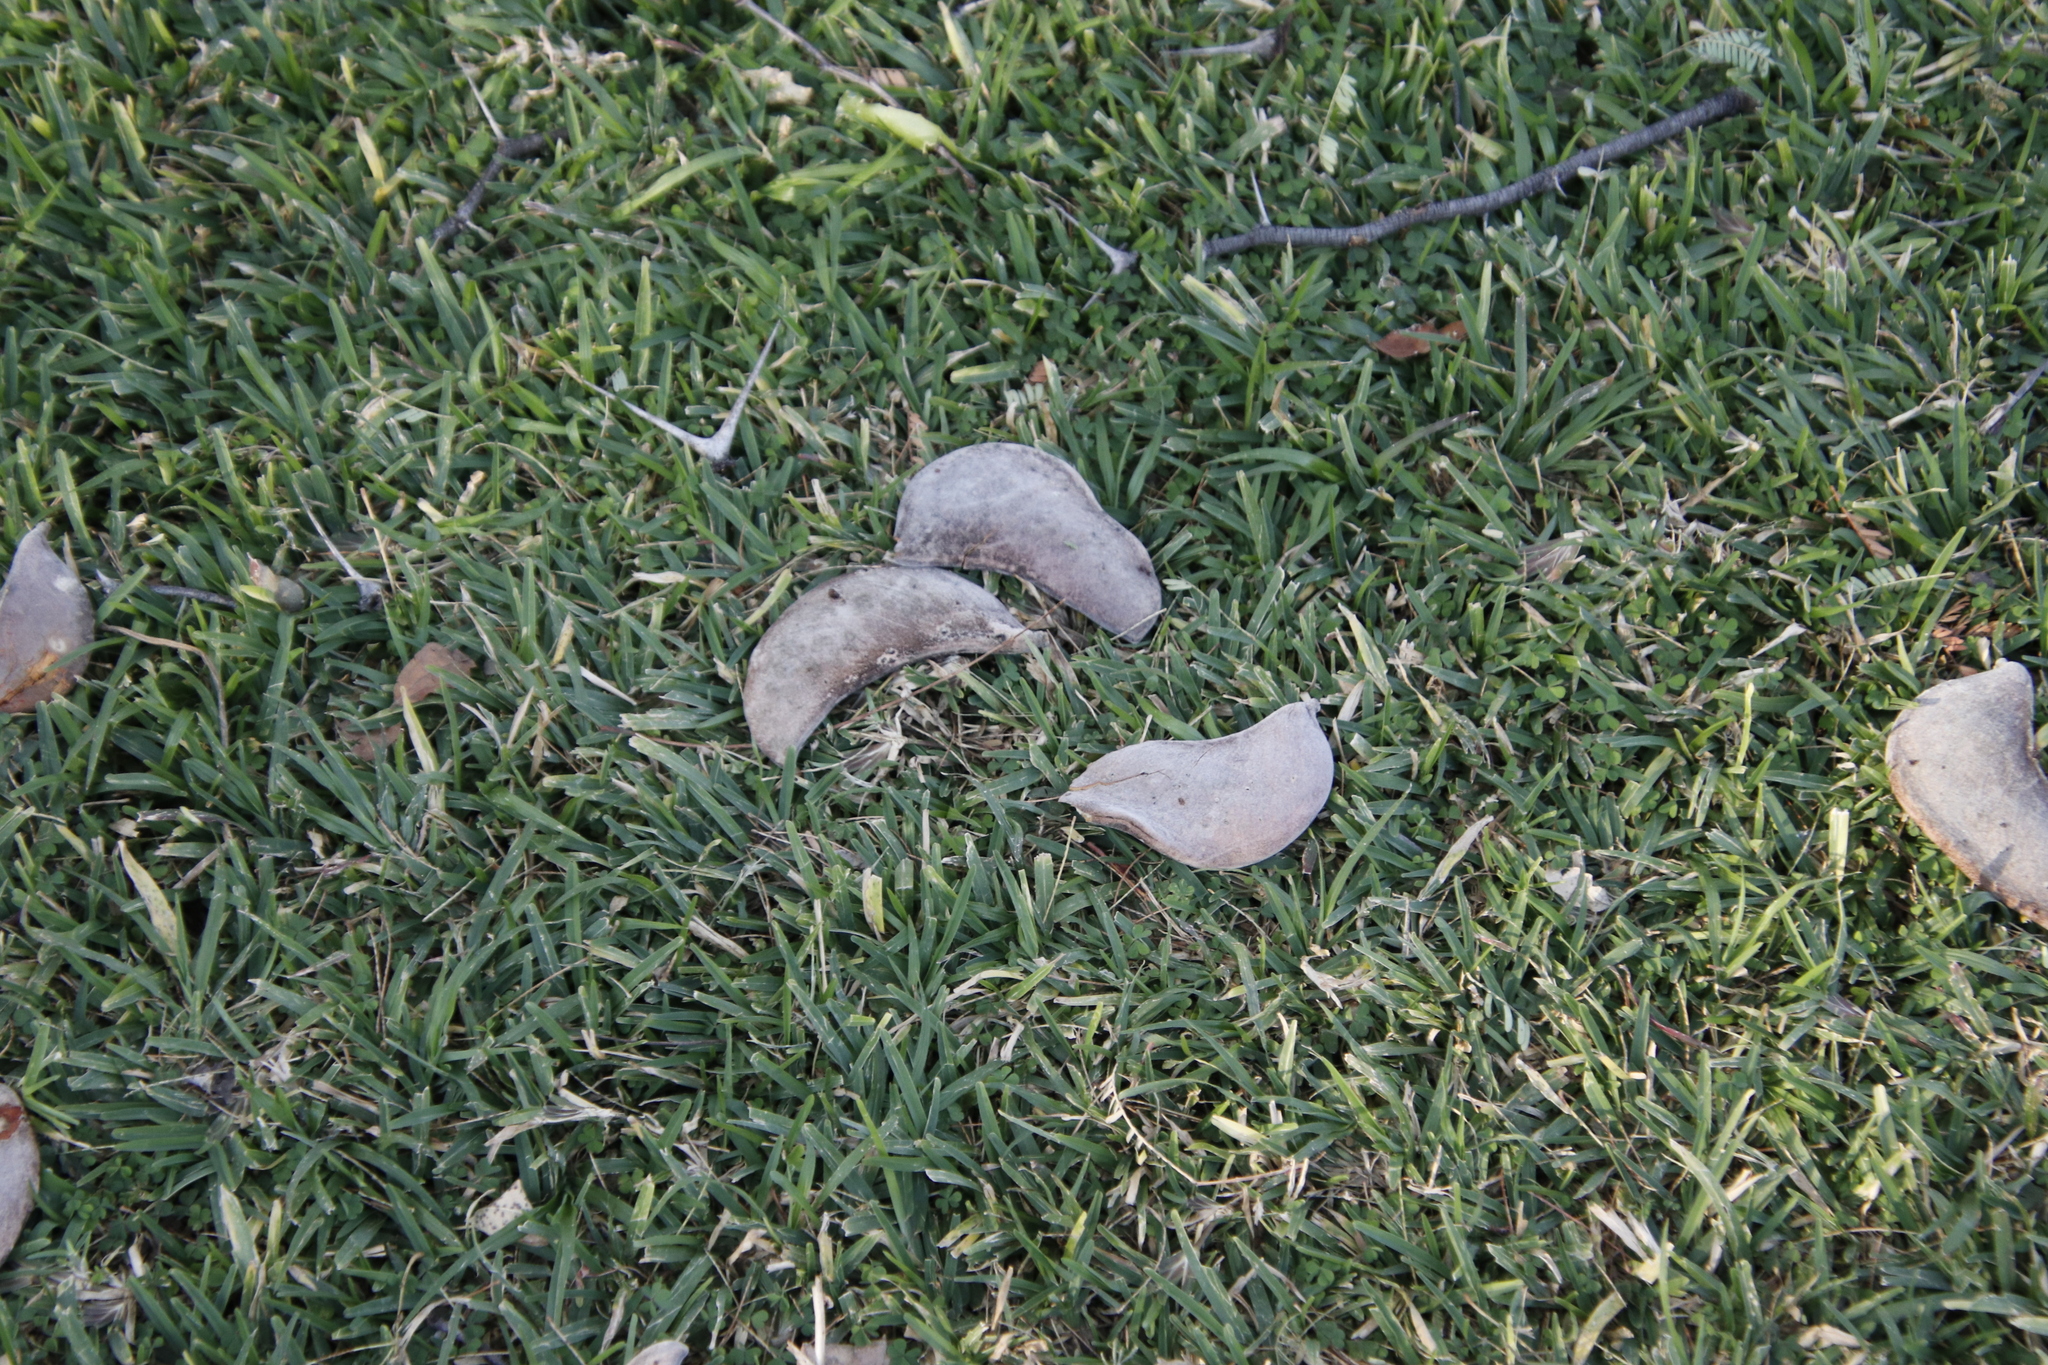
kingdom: Plantae
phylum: Tracheophyta
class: Magnoliopsida
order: Fabales
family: Fabaceae
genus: Vachellia
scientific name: Vachellia erioloba
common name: Camel thorn
